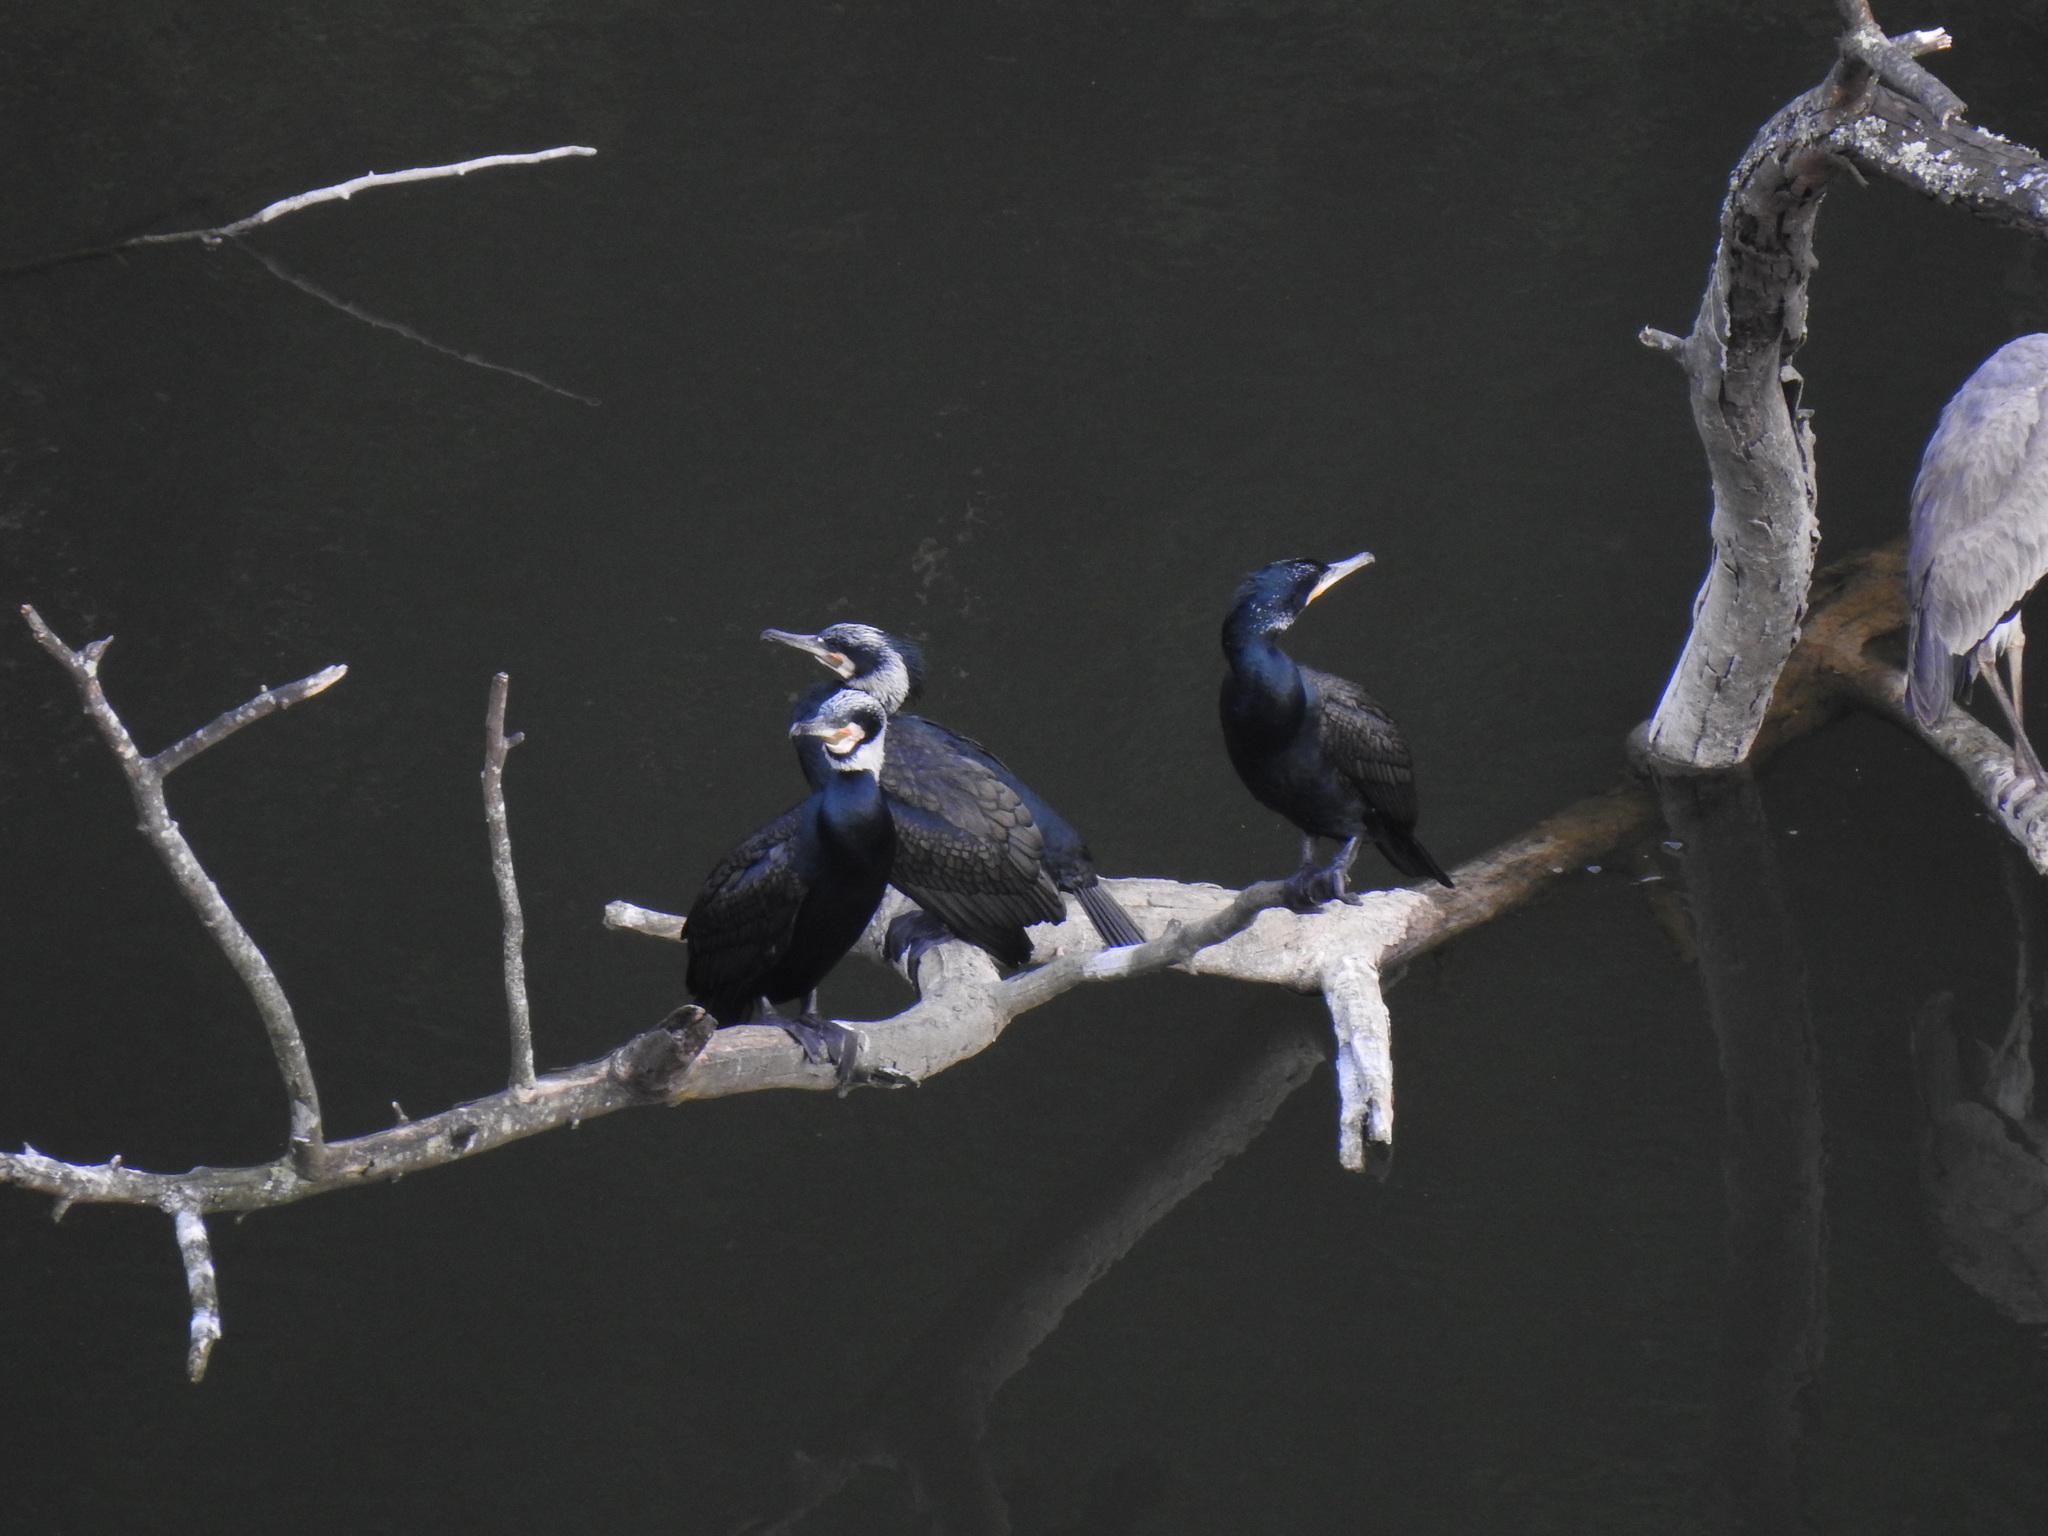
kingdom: Animalia
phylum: Chordata
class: Aves
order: Suliformes
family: Phalacrocoracidae
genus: Phalacrocorax
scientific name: Phalacrocorax carbo
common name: Great cormorant
